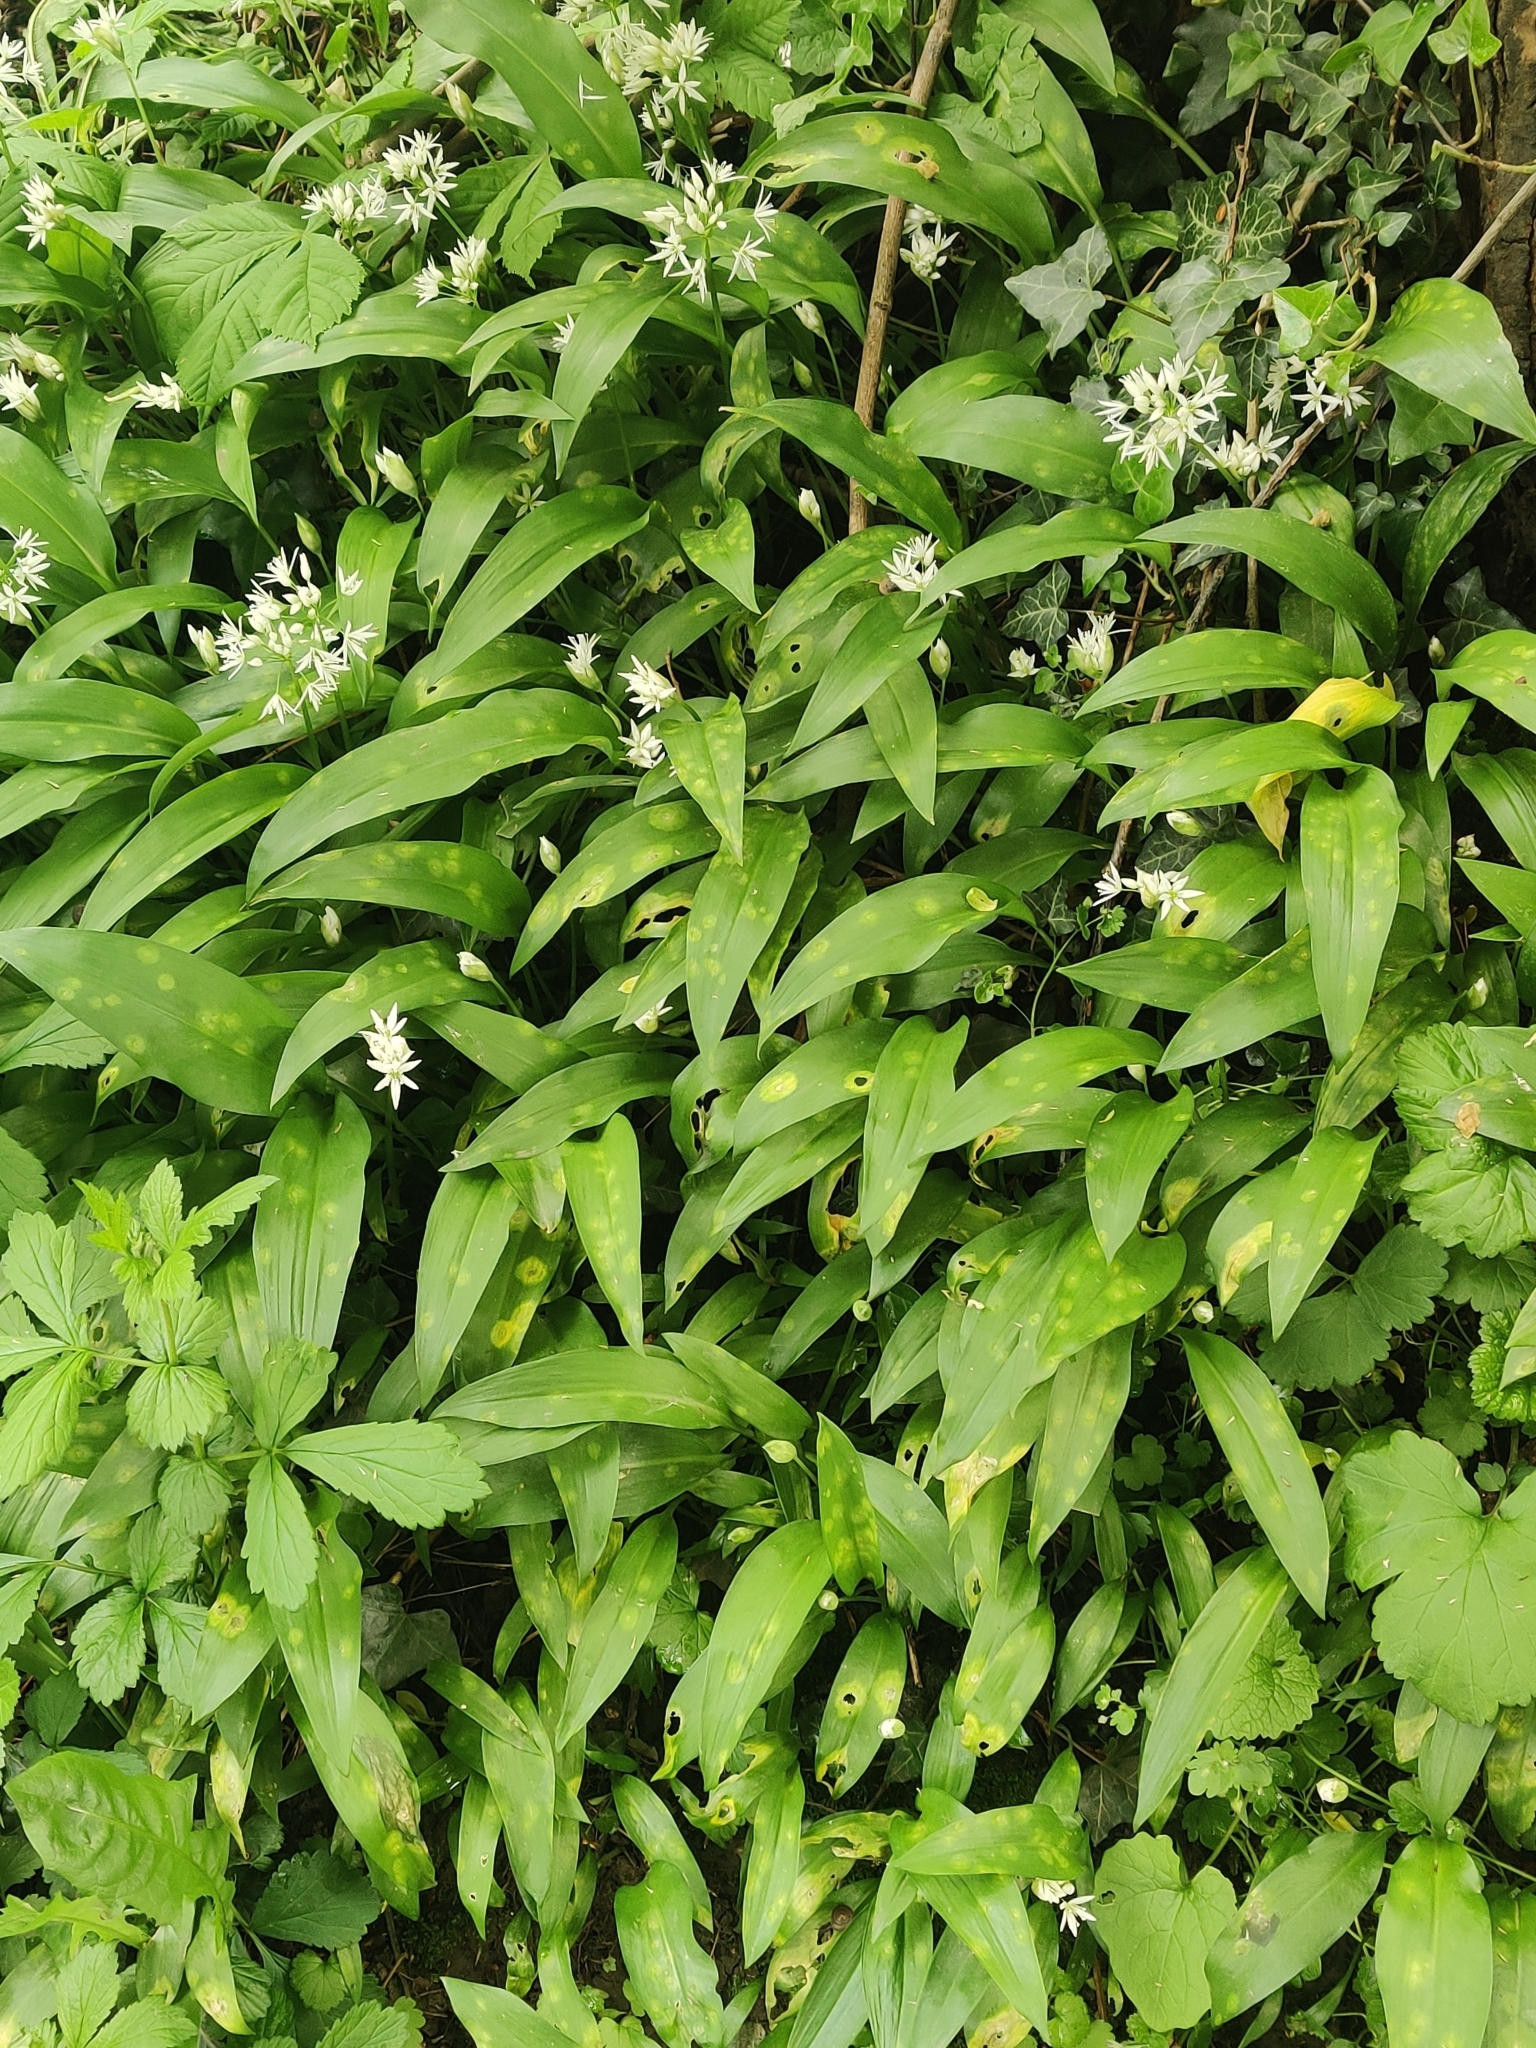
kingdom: Plantae
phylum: Tracheophyta
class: Liliopsida
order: Asparagales
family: Amaryllidaceae
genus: Allium
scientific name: Allium ursinum
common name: Ramsons
